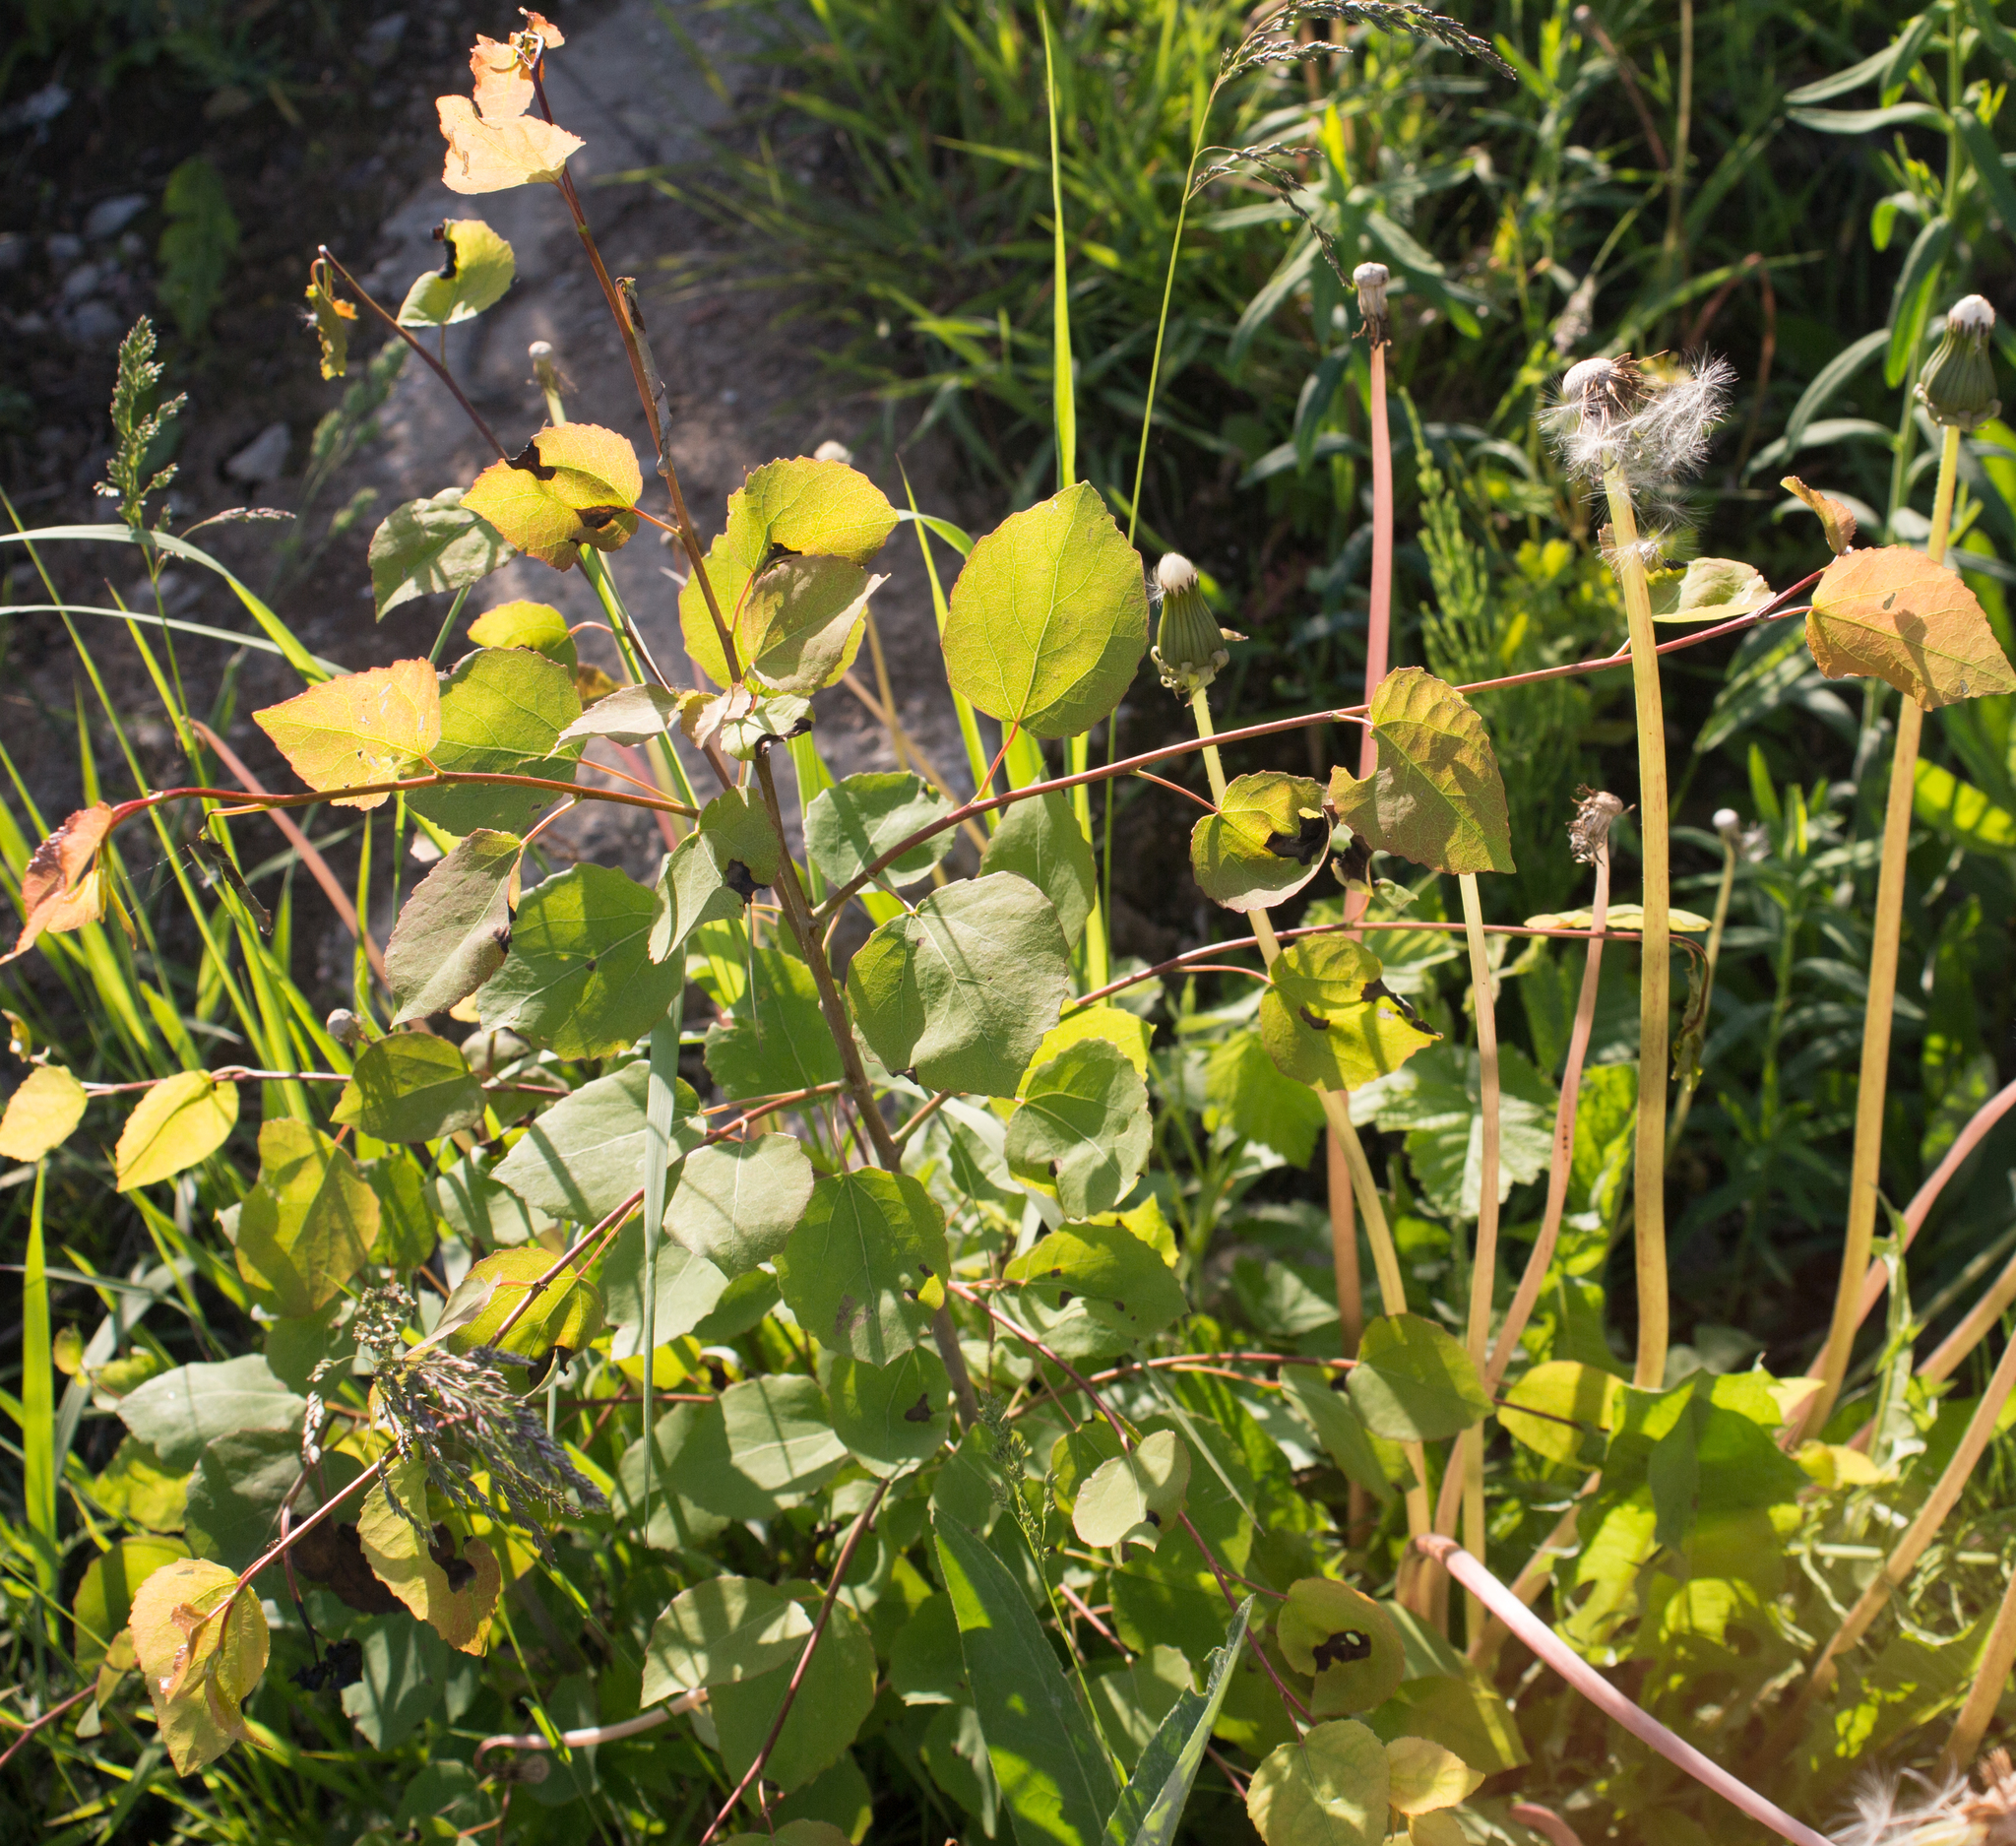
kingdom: Plantae
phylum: Tracheophyta
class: Magnoliopsida
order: Malpighiales
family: Salicaceae
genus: Populus
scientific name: Populus tremula
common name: European aspen
